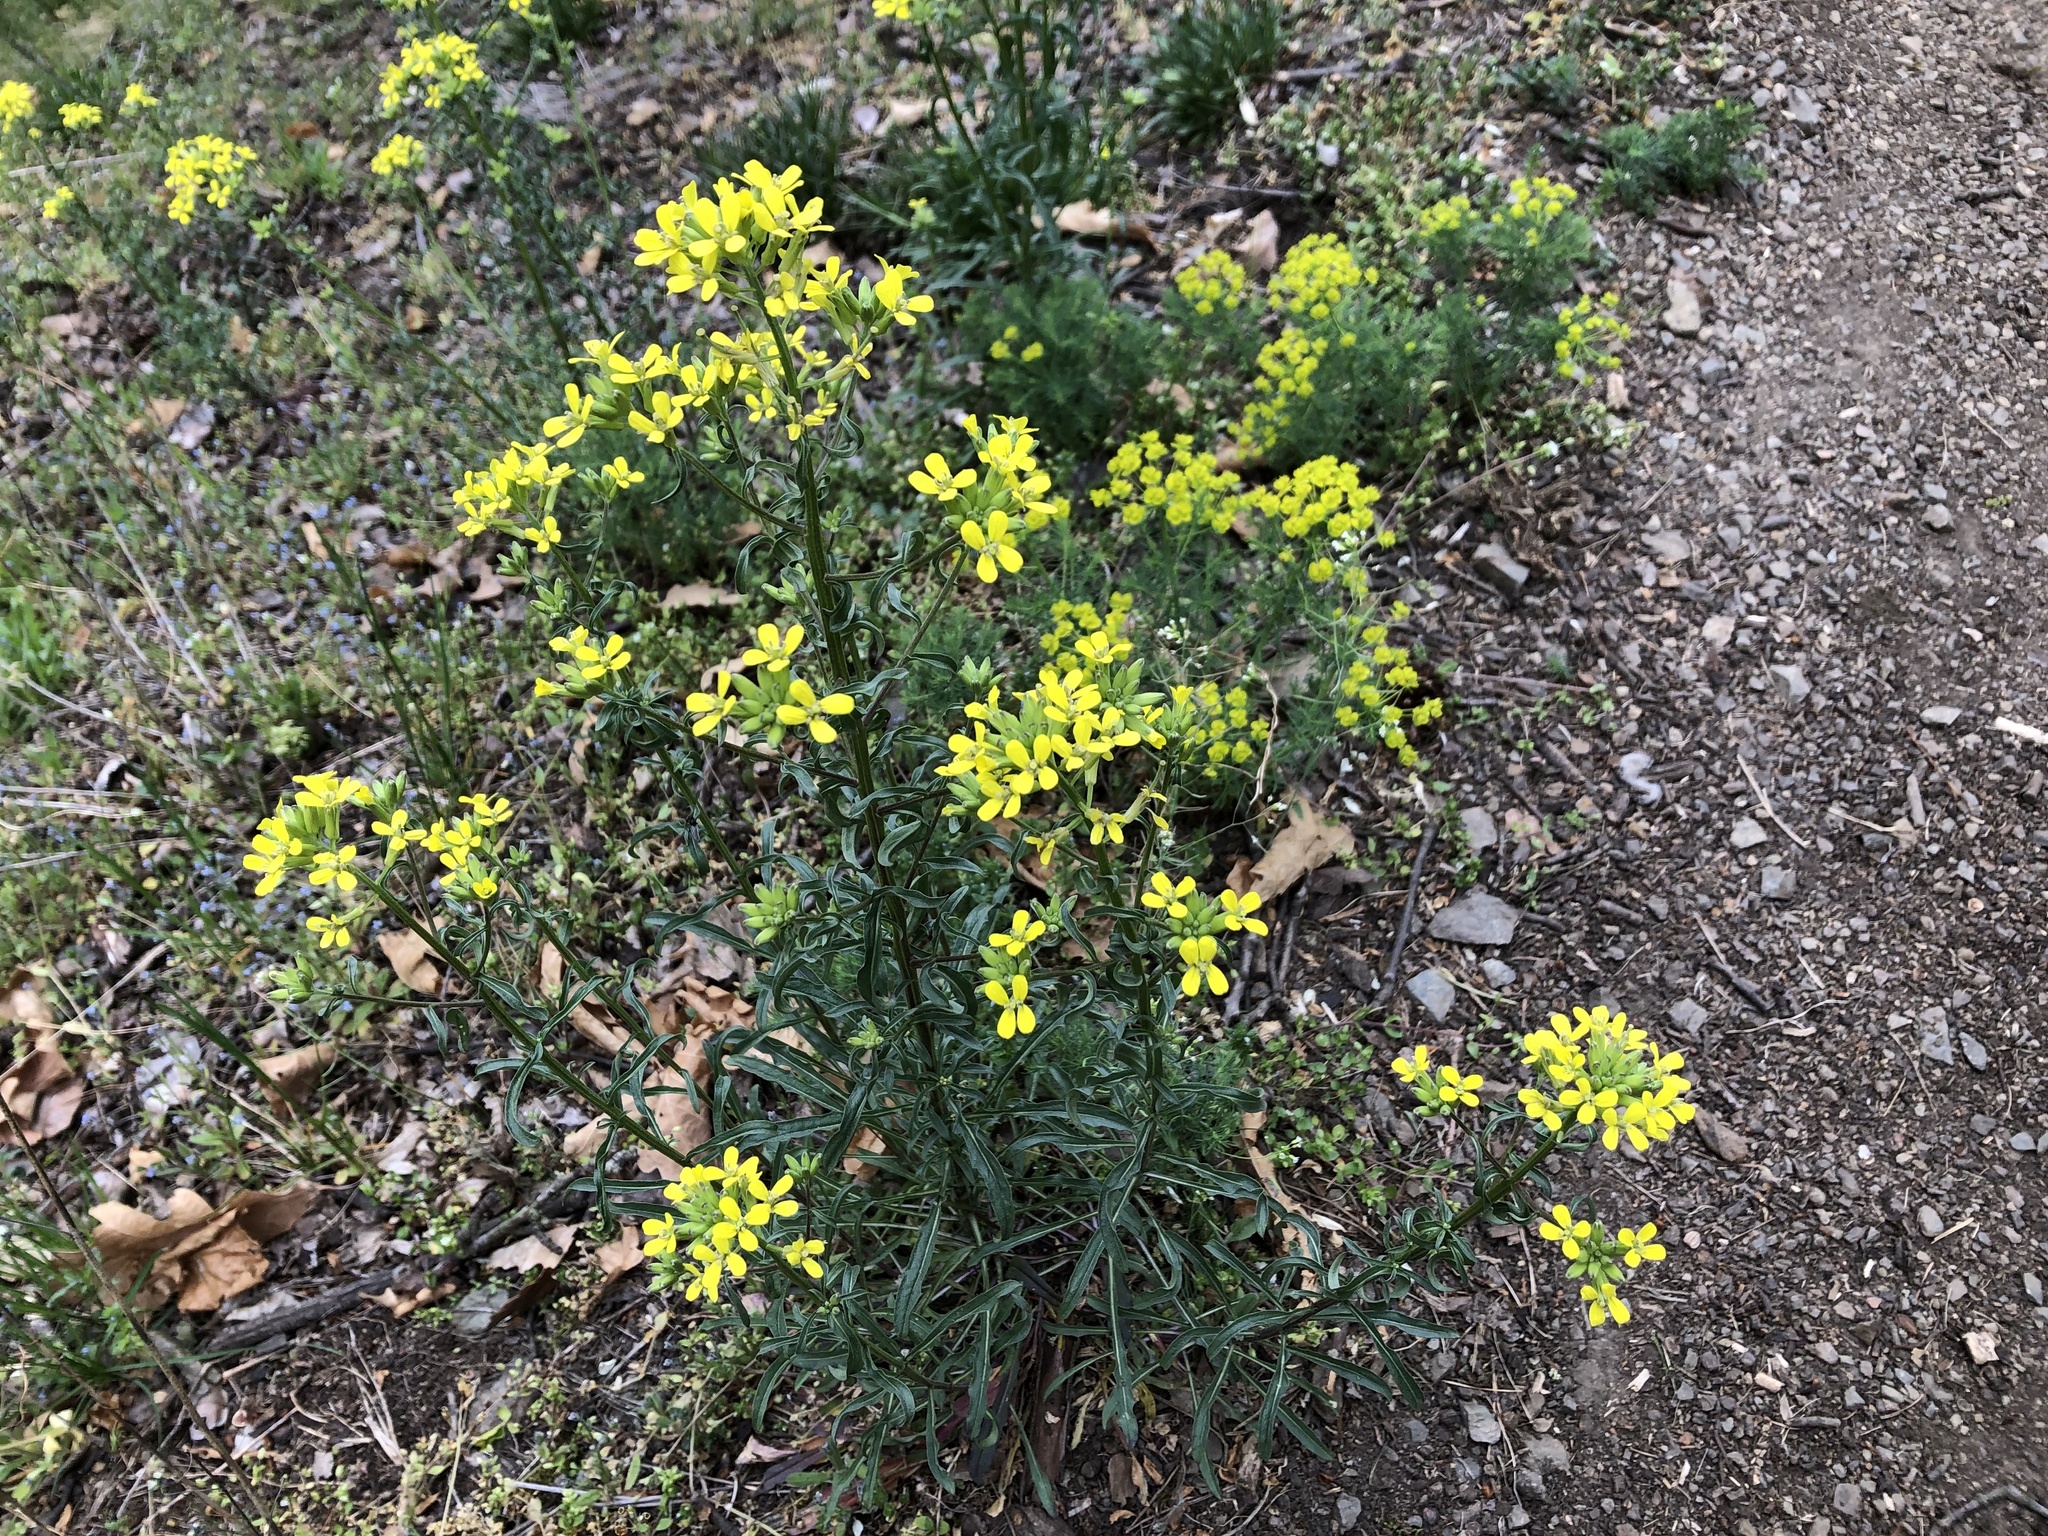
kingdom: Plantae
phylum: Tracheophyta
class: Magnoliopsida
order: Brassicales
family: Brassicaceae
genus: Erysimum
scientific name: Erysimum crepidifolium
